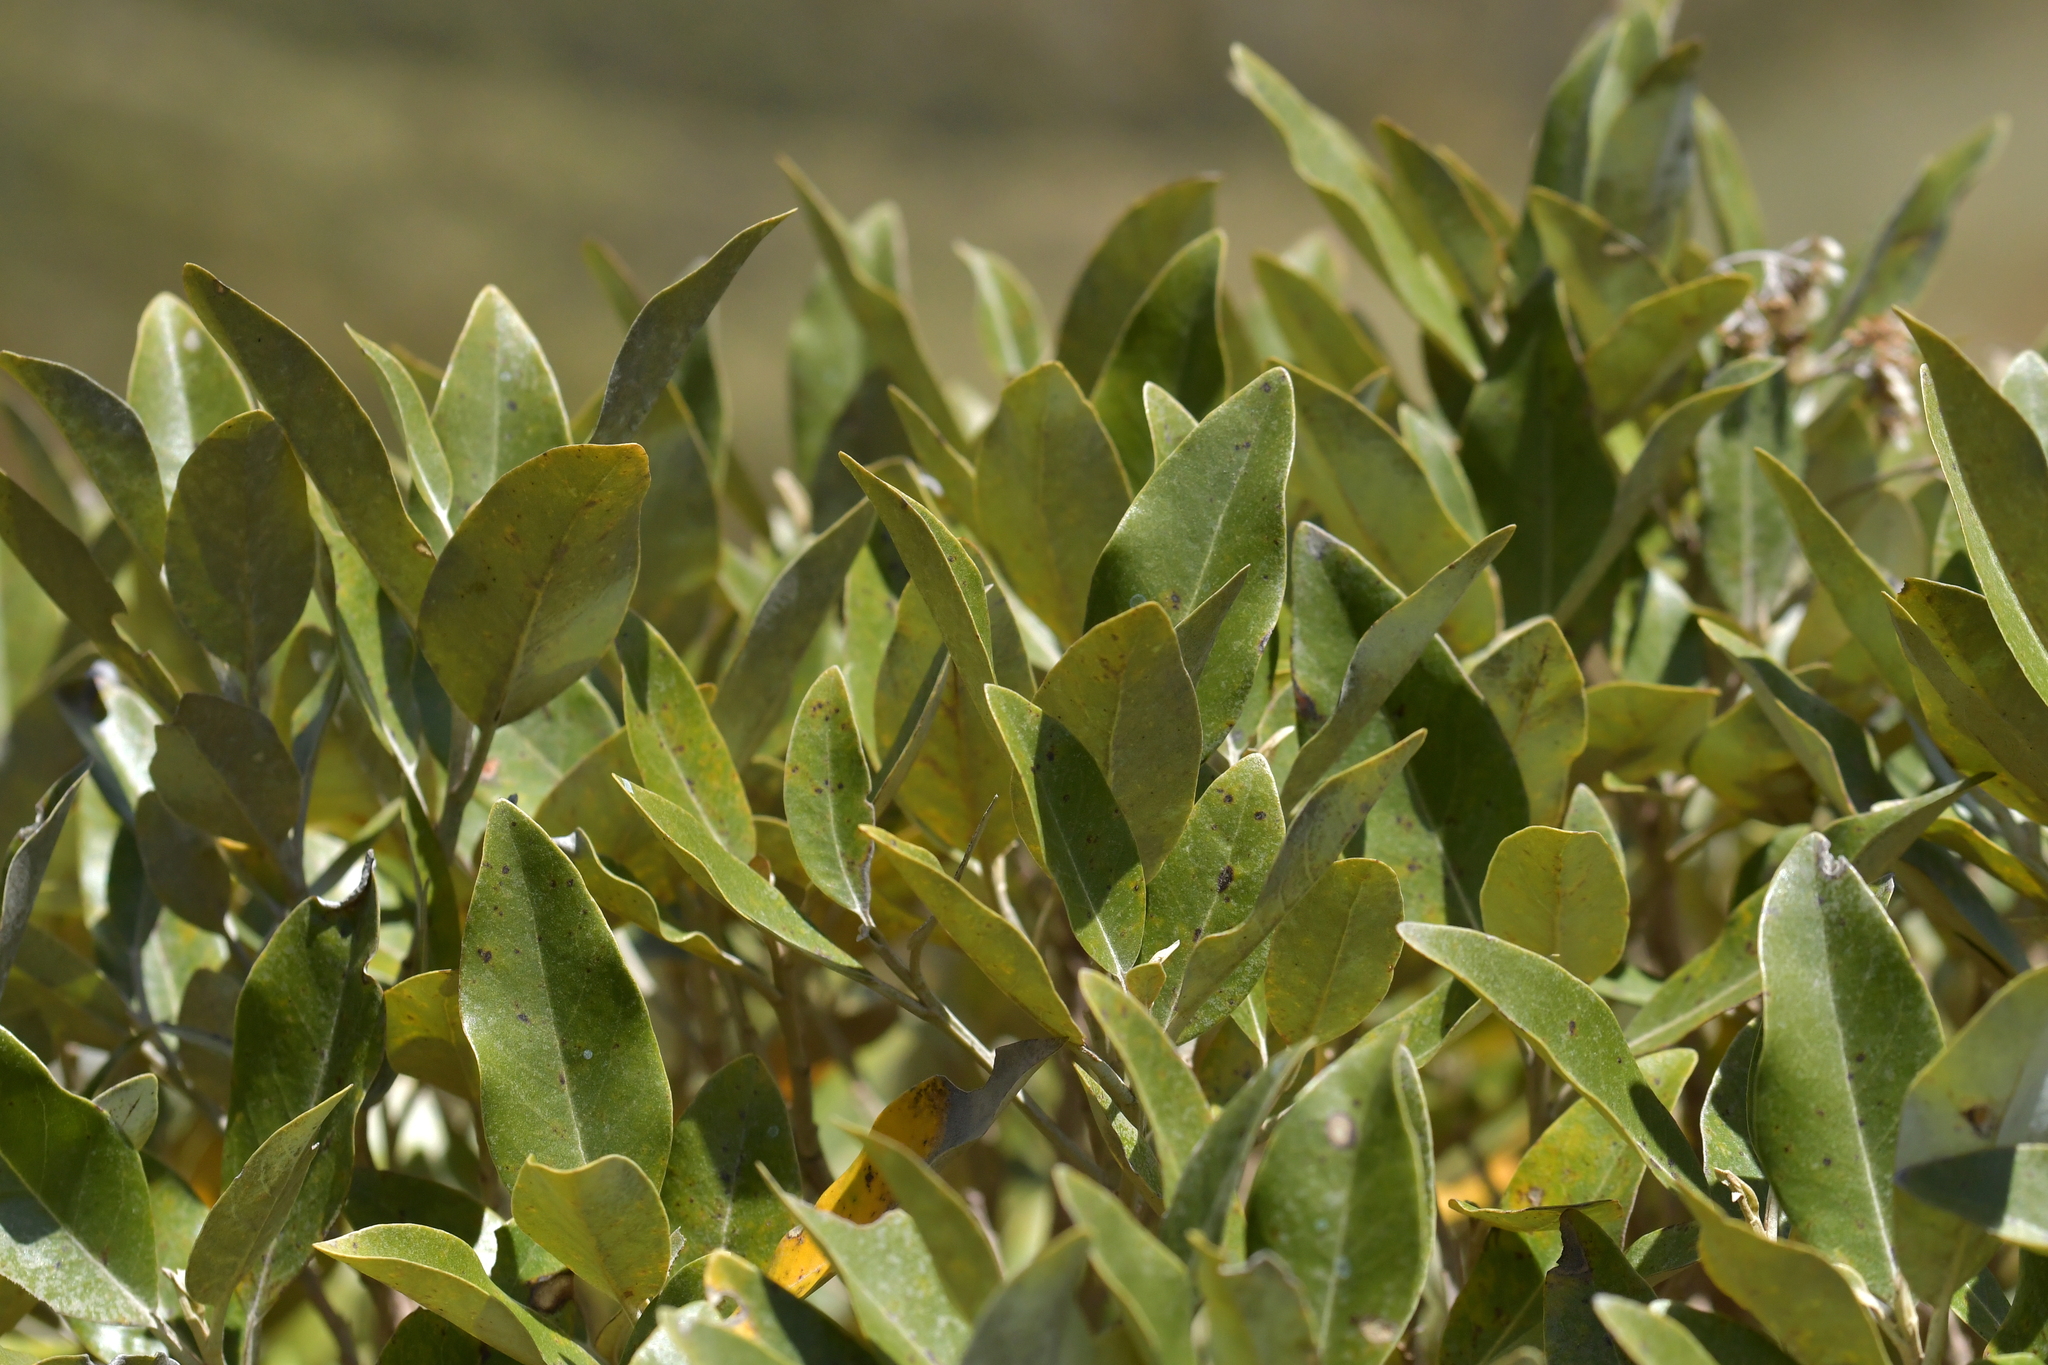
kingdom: Plantae
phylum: Tracheophyta
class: Magnoliopsida
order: Asterales
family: Asteraceae
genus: Olearia
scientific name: Olearia avicenniifolia
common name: Mangrove-leaf daisybush
